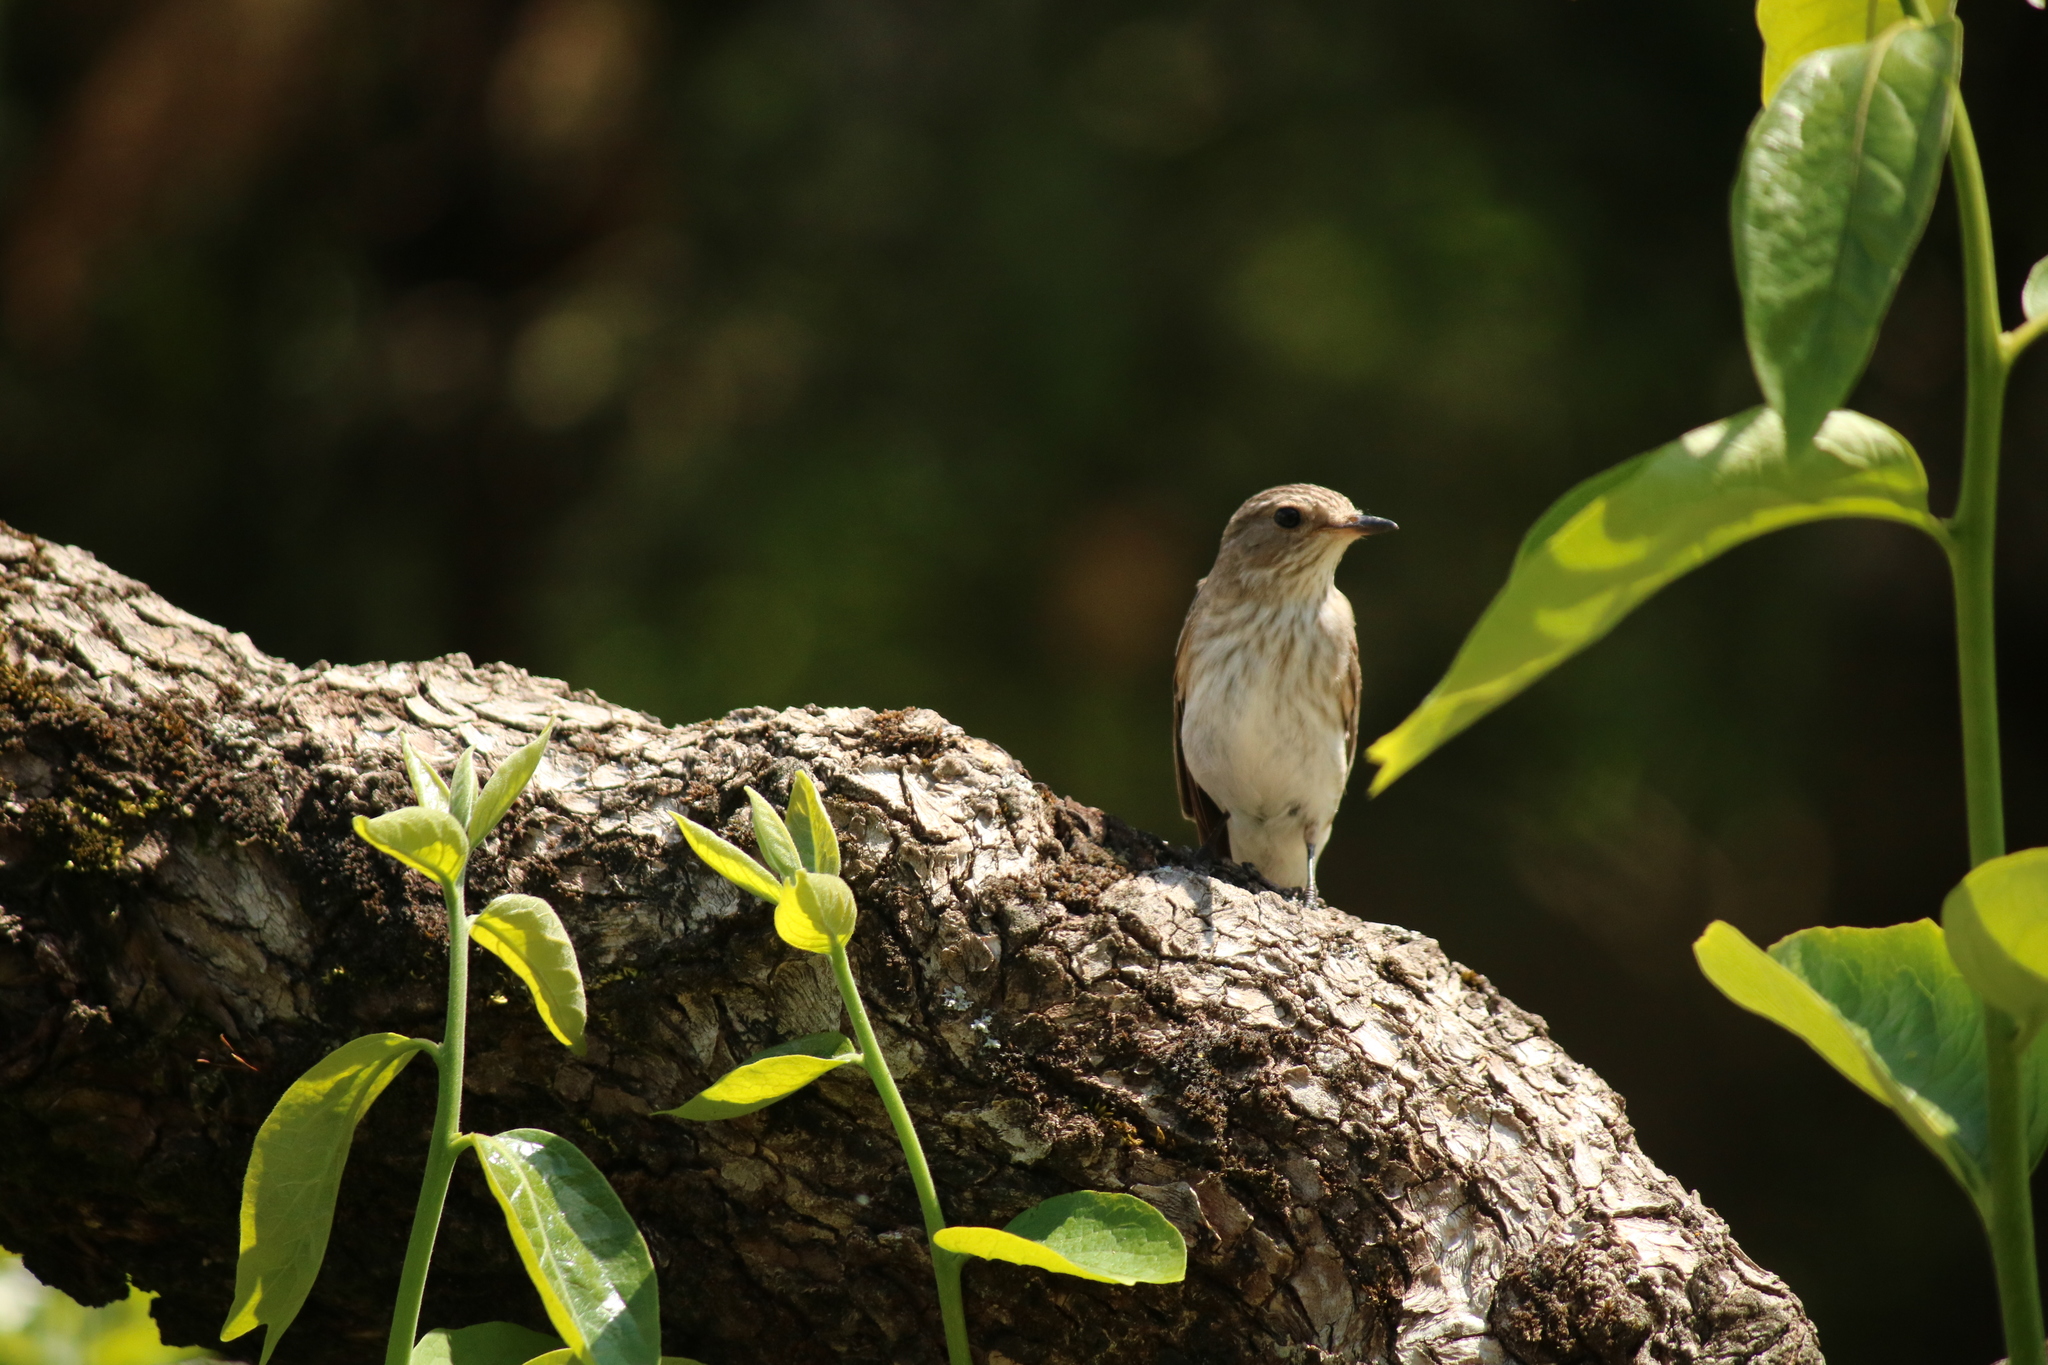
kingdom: Animalia
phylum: Chordata
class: Aves
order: Passeriformes
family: Muscicapidae
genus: Muscicapa
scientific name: Muscicapa striata
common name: Spotted flycatcher
